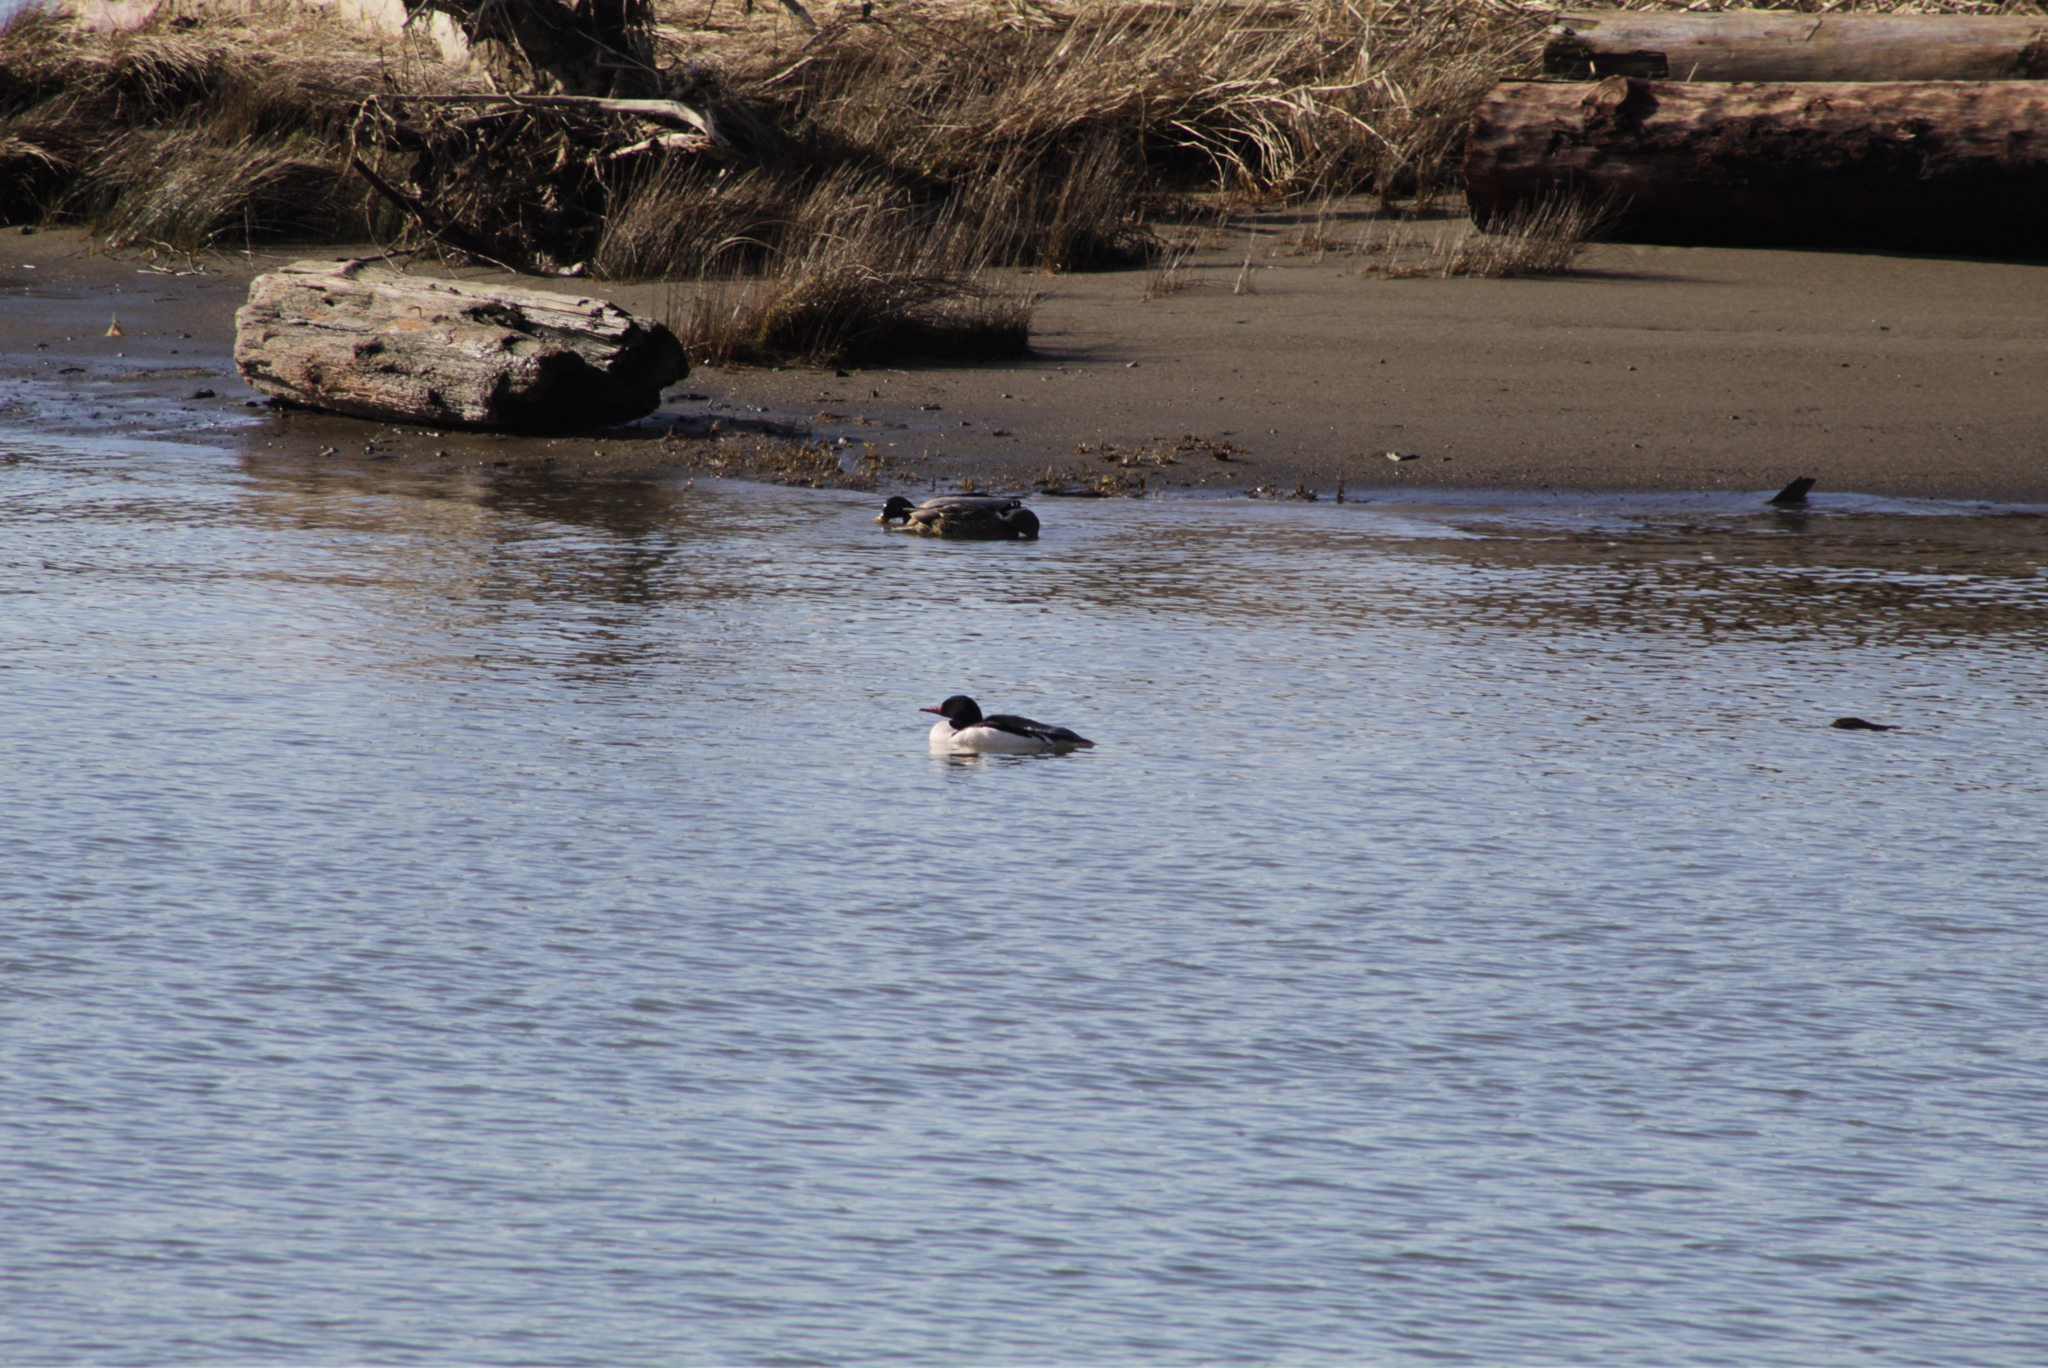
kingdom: Animalia
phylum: Chordata
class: Aves
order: Anseriformes
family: Anatidae
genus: Mergus
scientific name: Mergus merganser
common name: Common merganser
